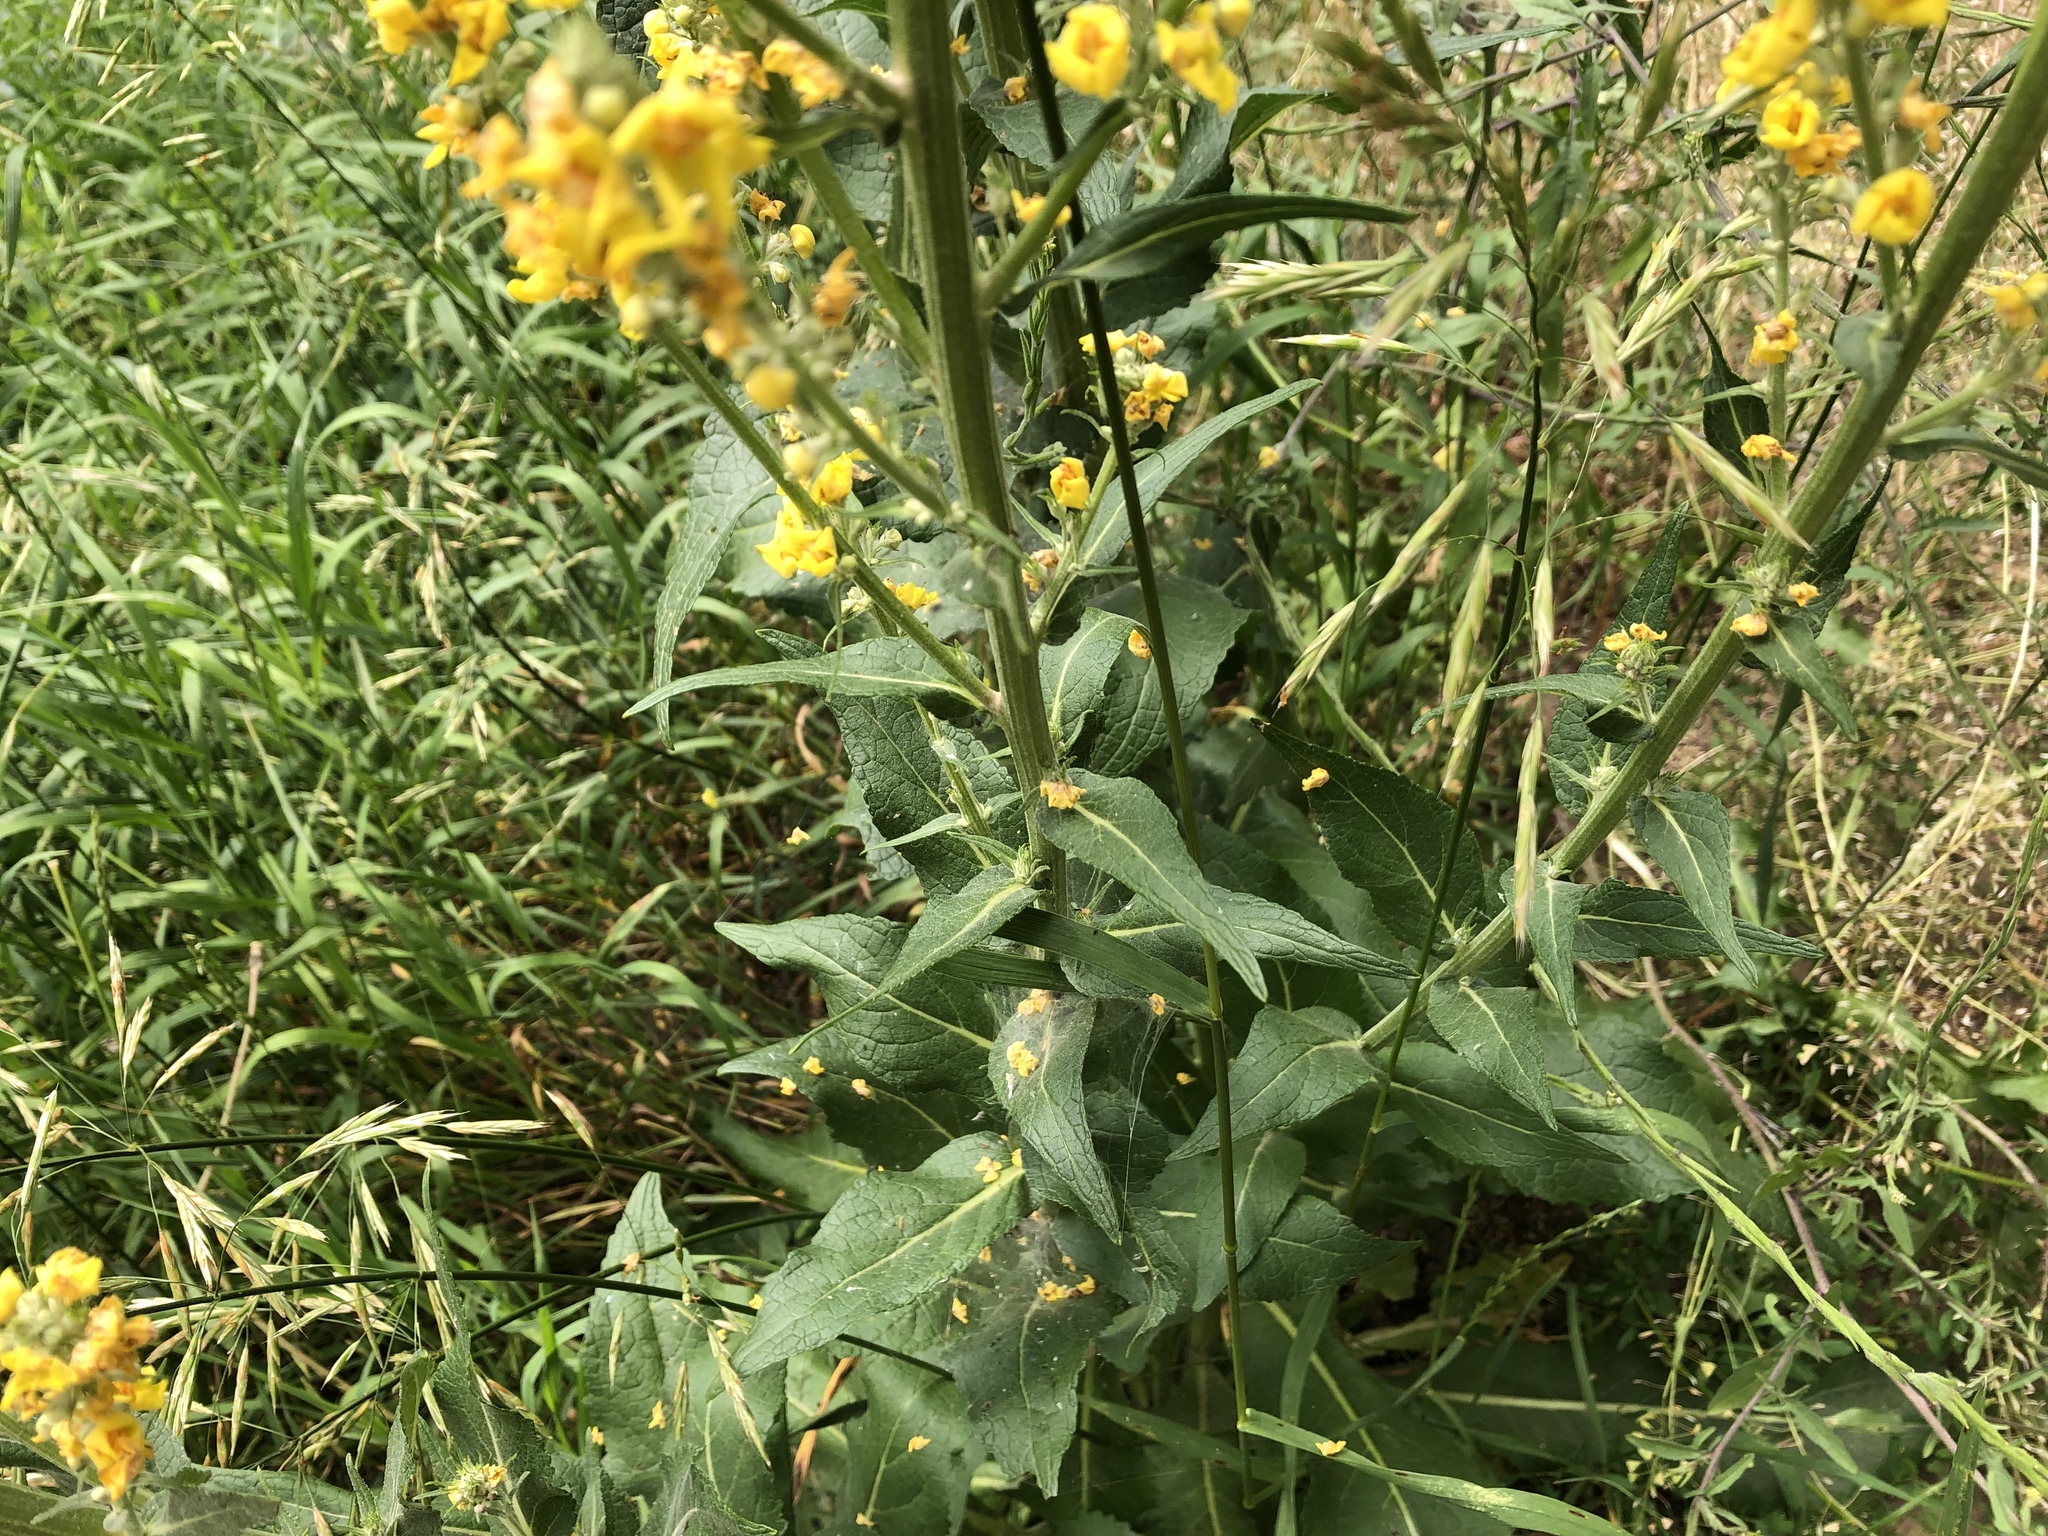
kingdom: Plantae
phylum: Tracheophyta
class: Magnoliopsida
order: Lamiales
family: Scrophulariaceae
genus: Verbascum
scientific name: Verbascum lychnitis
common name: White mullein
